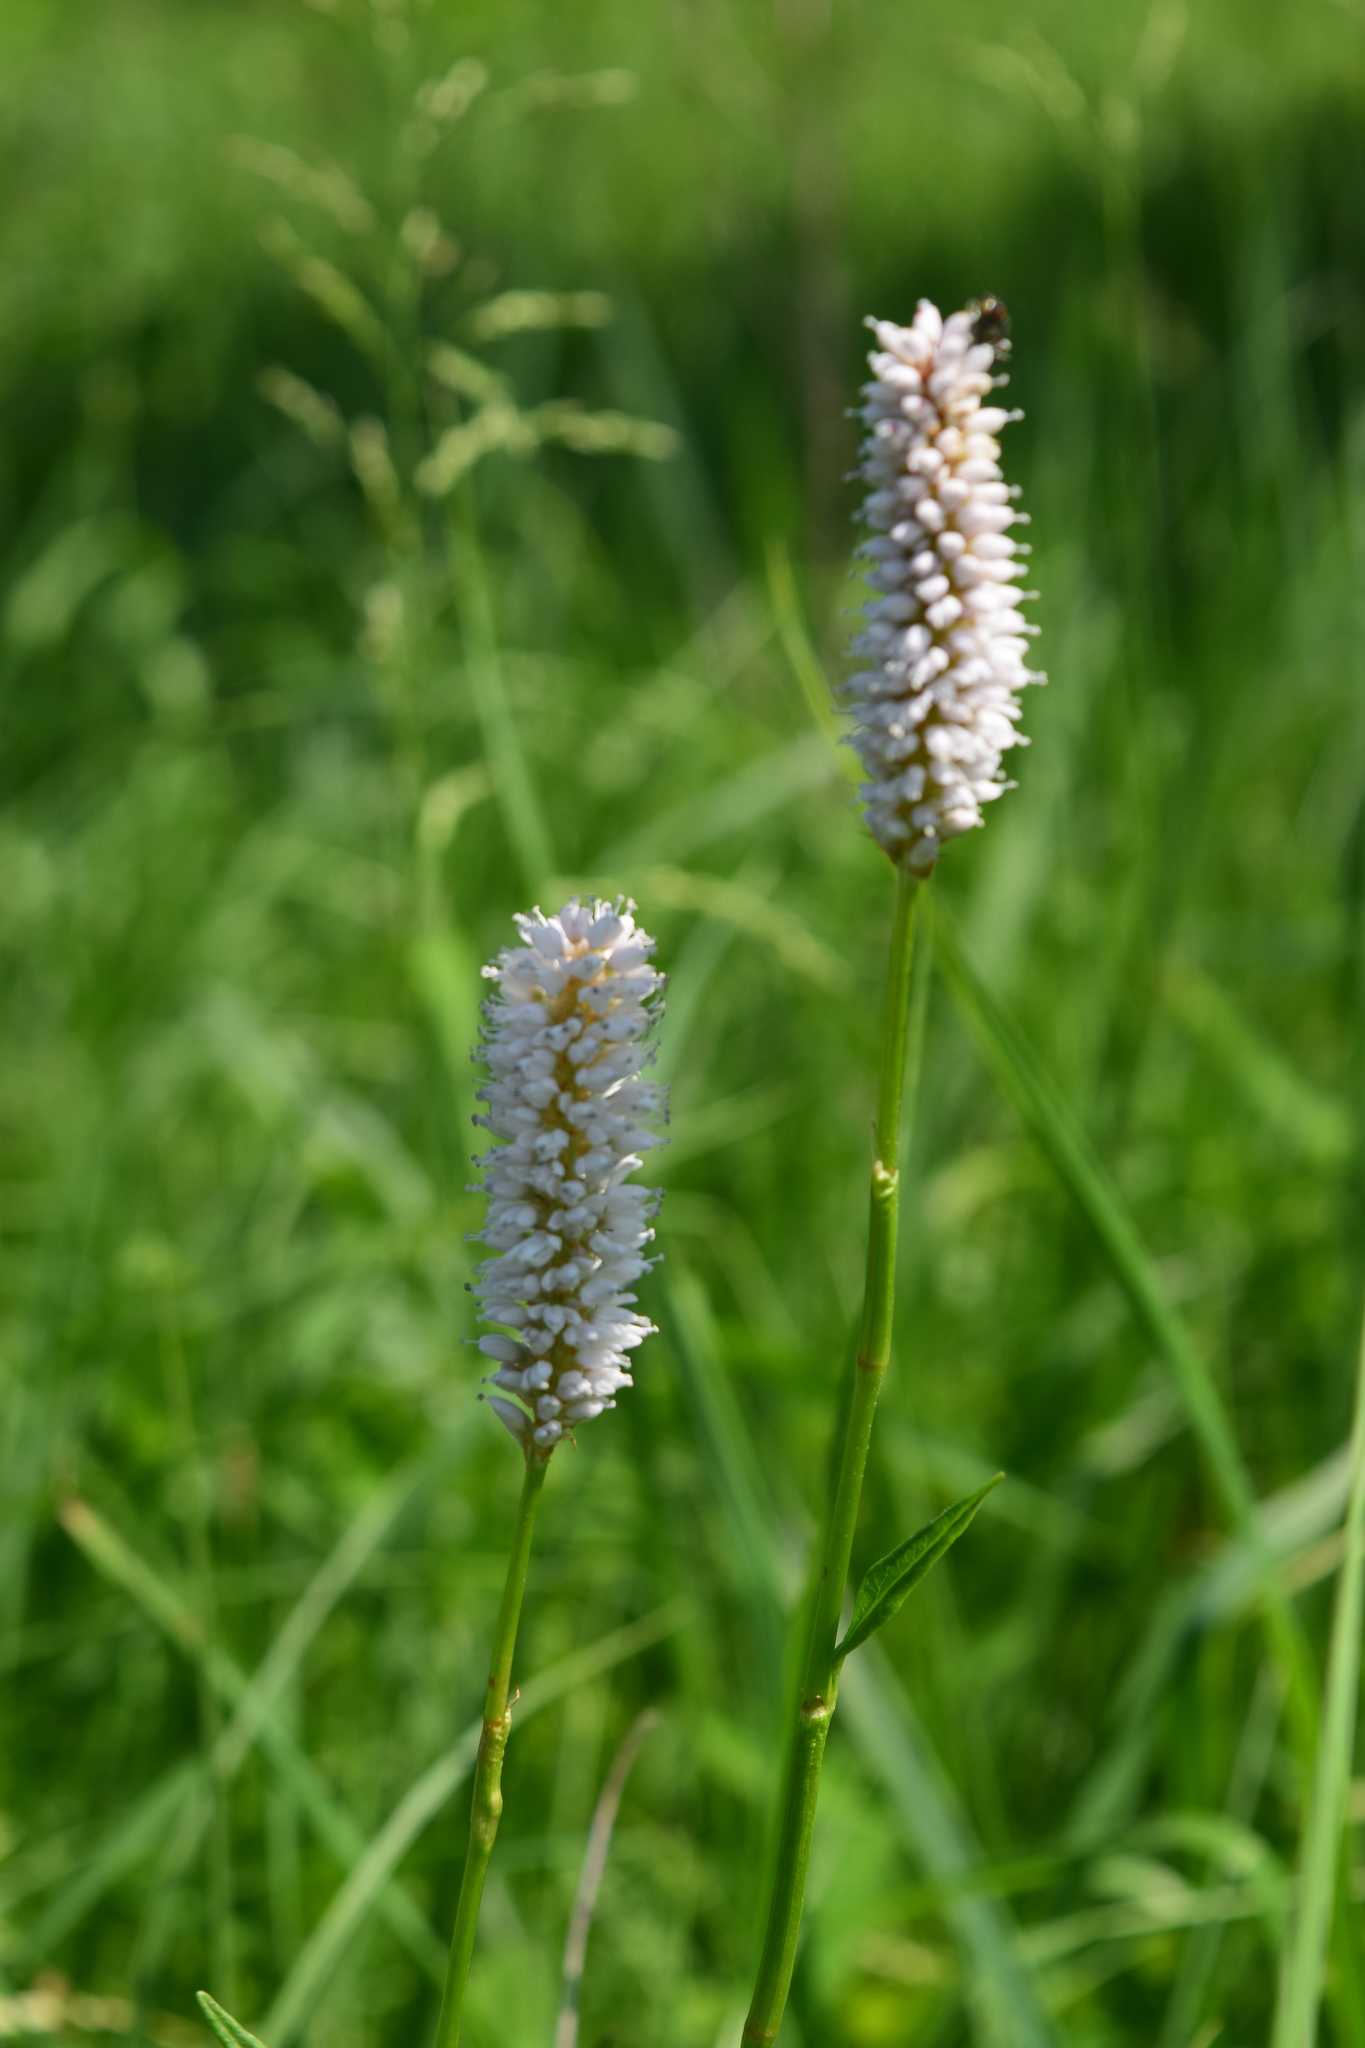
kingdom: Plantae
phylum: Tracheophyta
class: Magnoliopsida
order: Caryophyllales
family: Polygonaceae
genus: Bistorta
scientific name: Bistorta officinalis
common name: Common bistort
